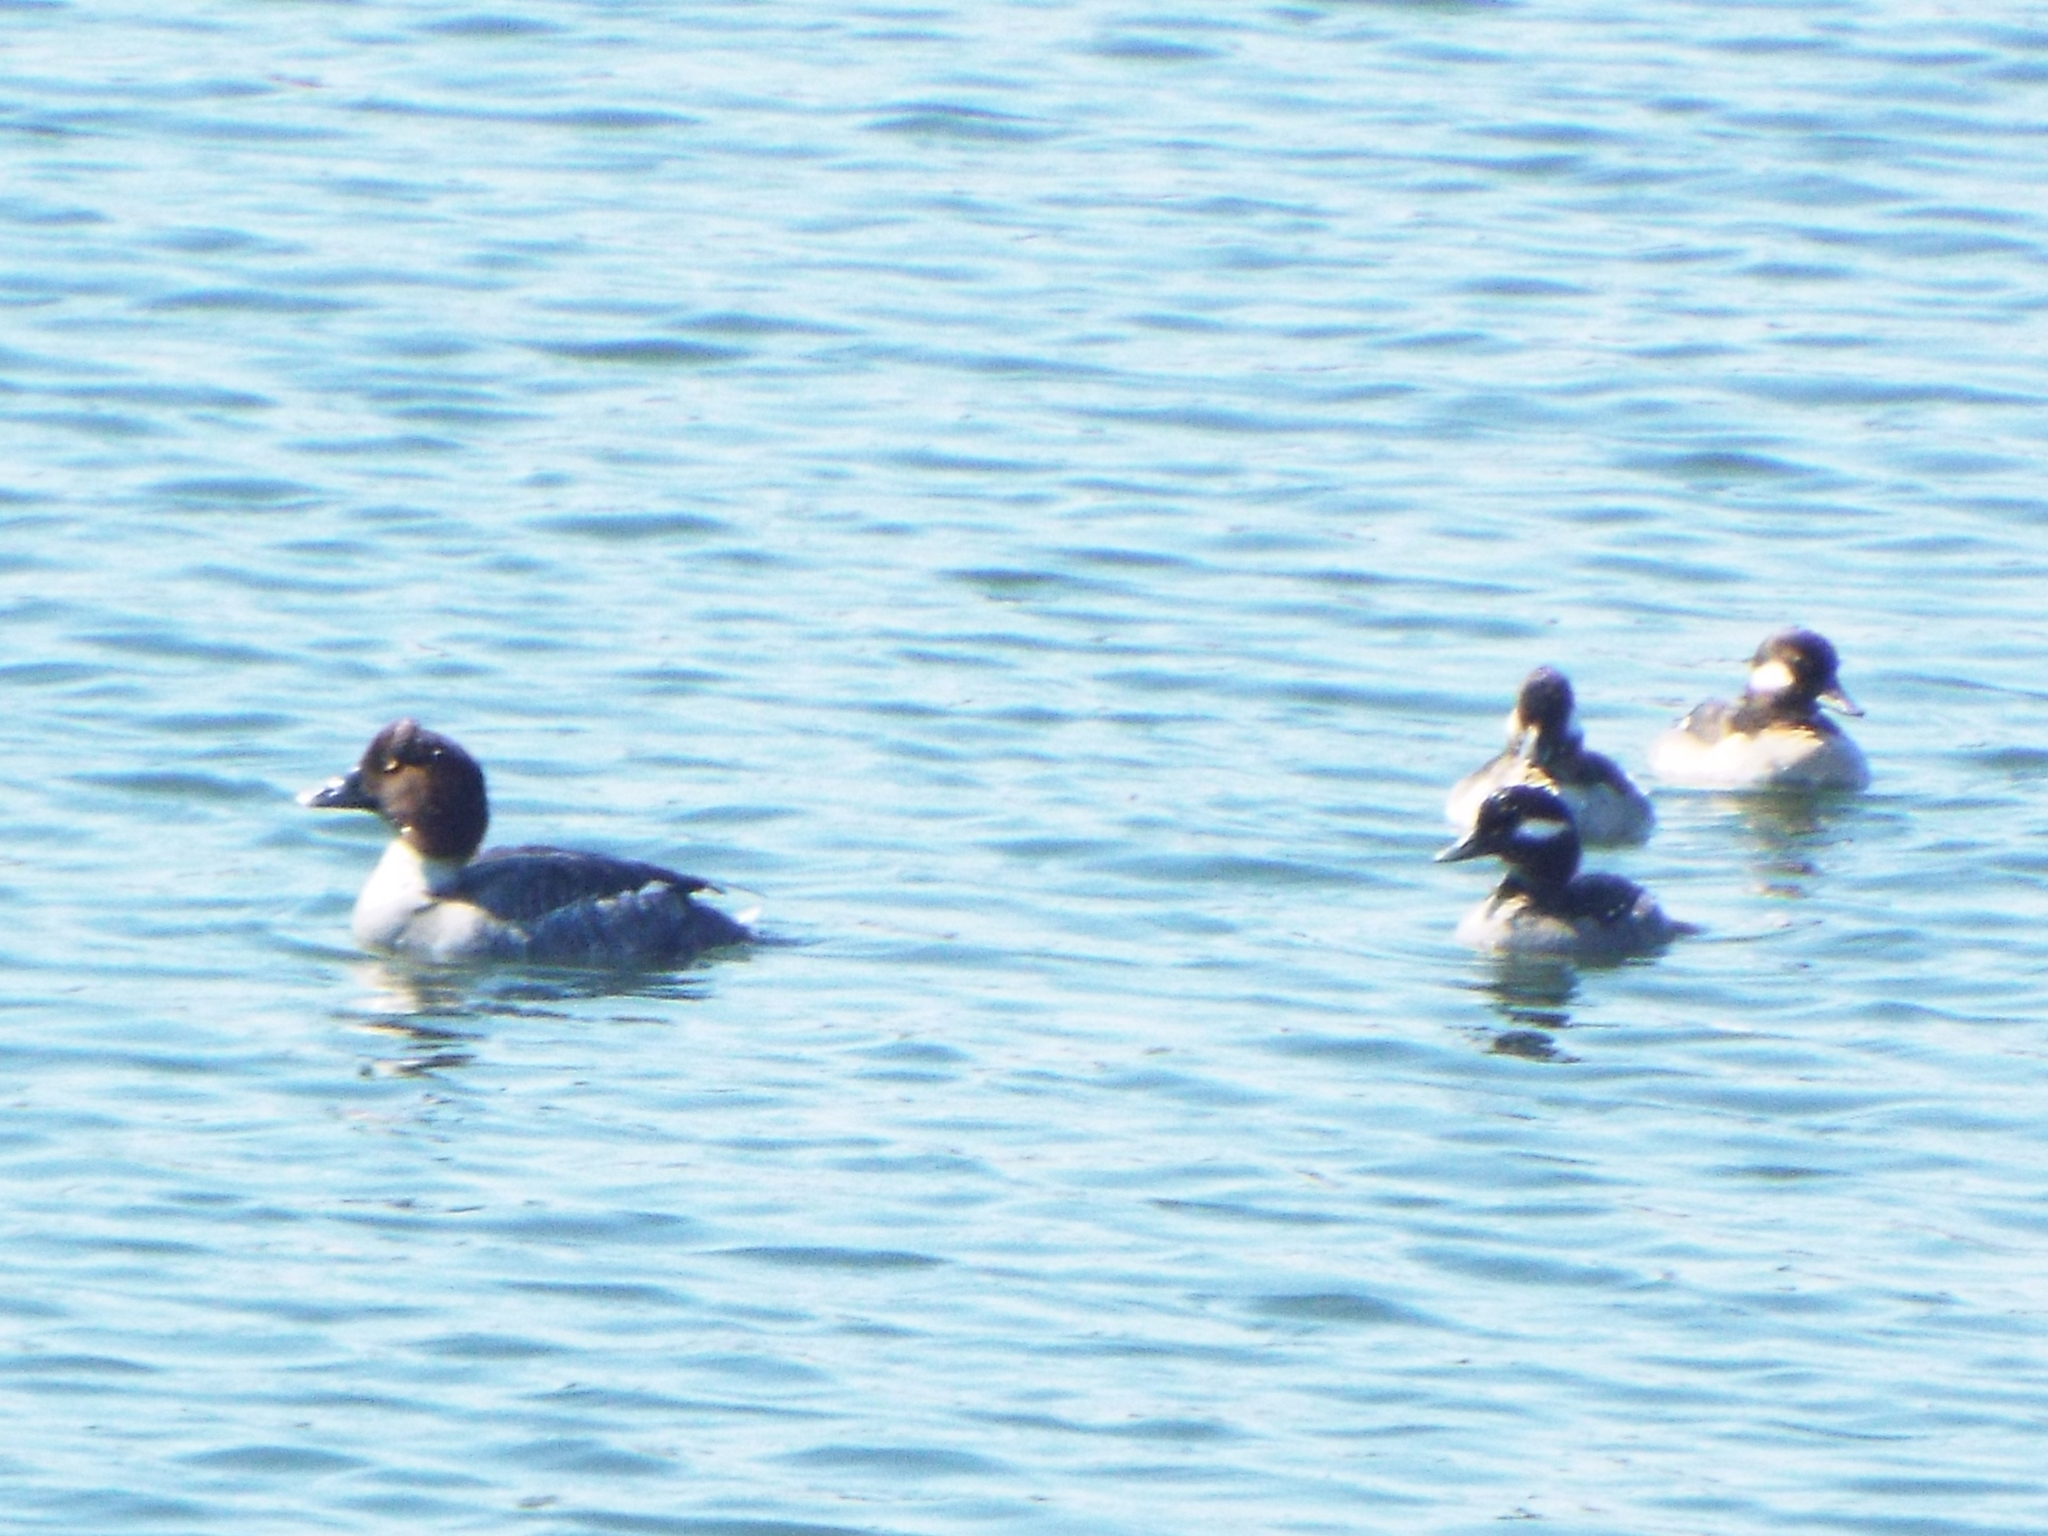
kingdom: Animalia
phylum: Chordata
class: Aves
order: Anseriformes
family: Anatidae
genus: Bucephala
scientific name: Bucephala albeola
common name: Bufflehead
